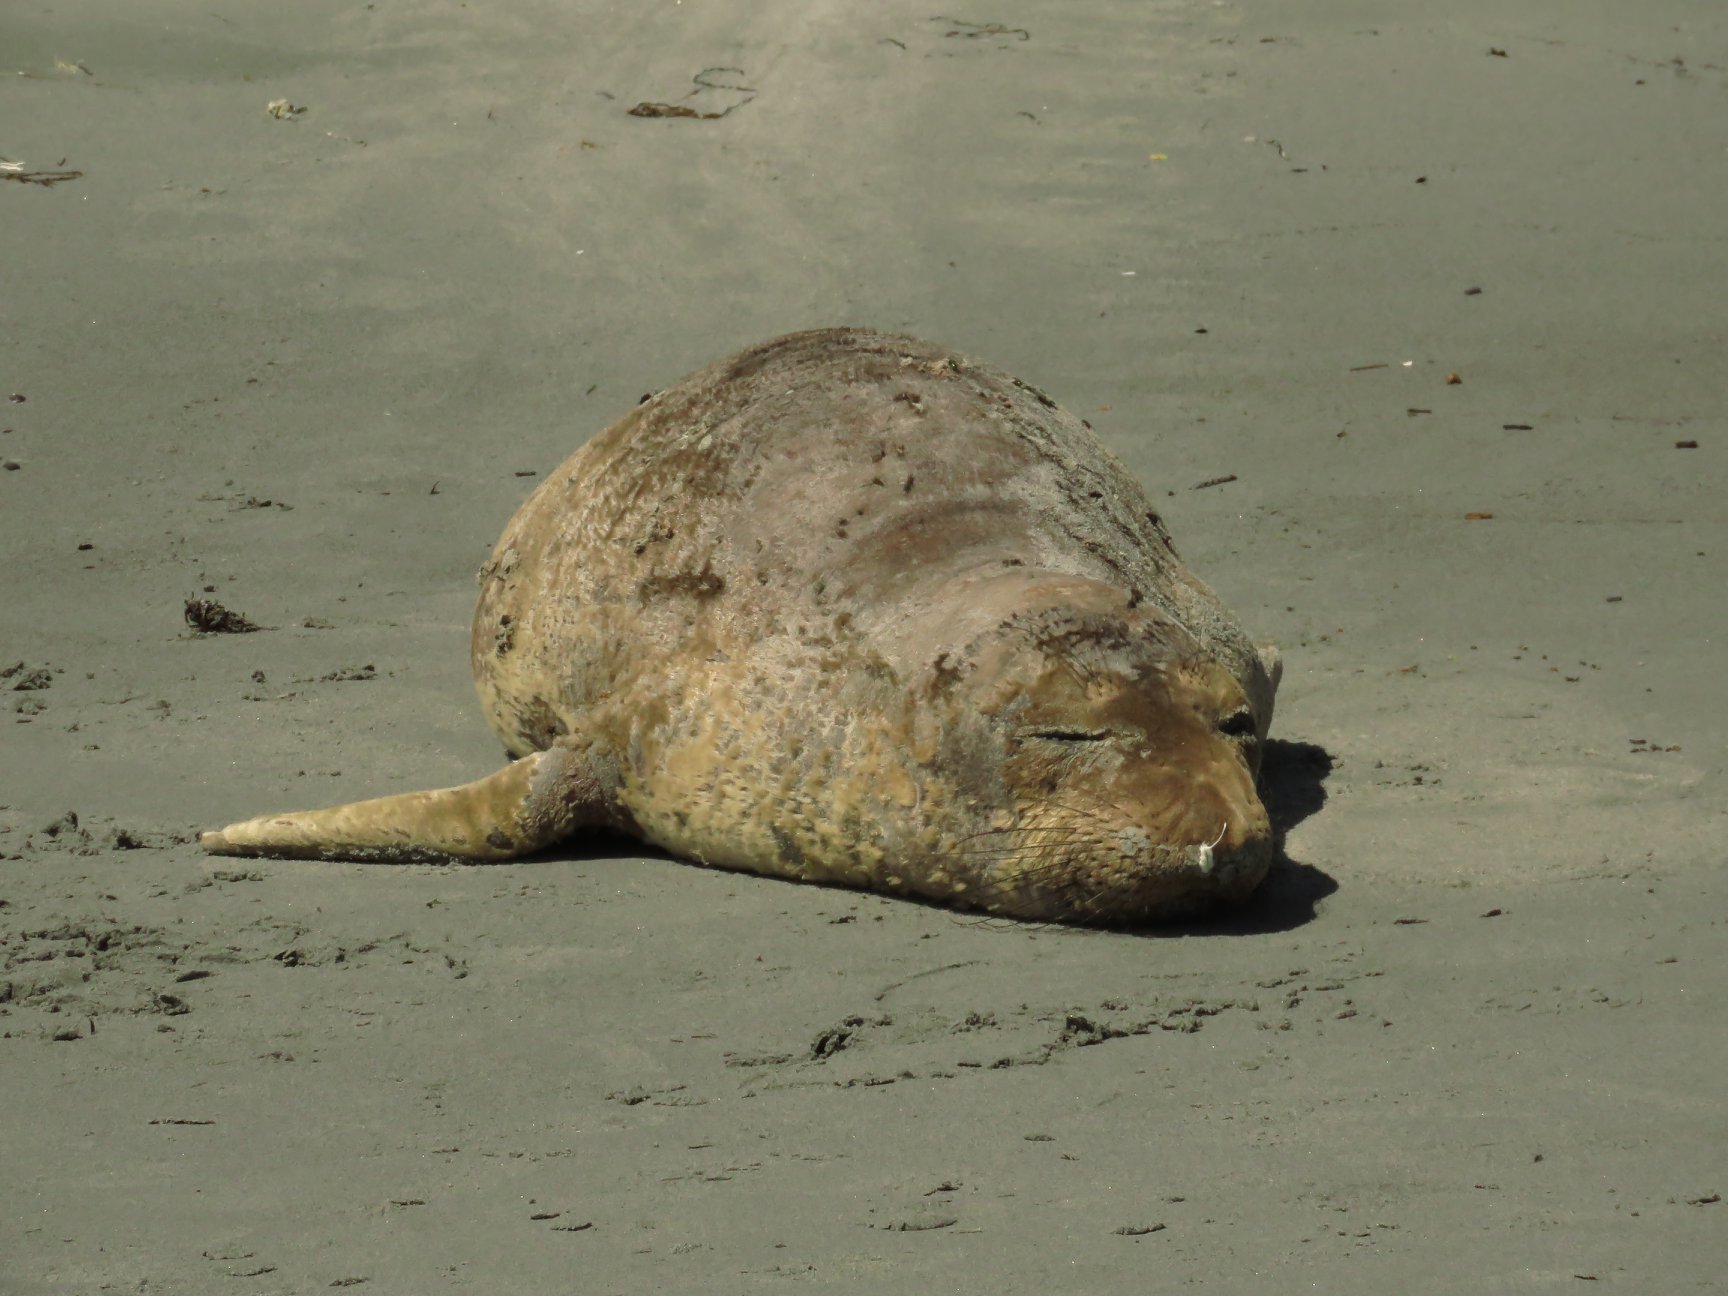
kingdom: Animalia
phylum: Chordata
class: Mammalia
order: Carnivora
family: Phocidae
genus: Mirounga
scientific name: Mirounga angustirostris
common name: Northern elephant seal
